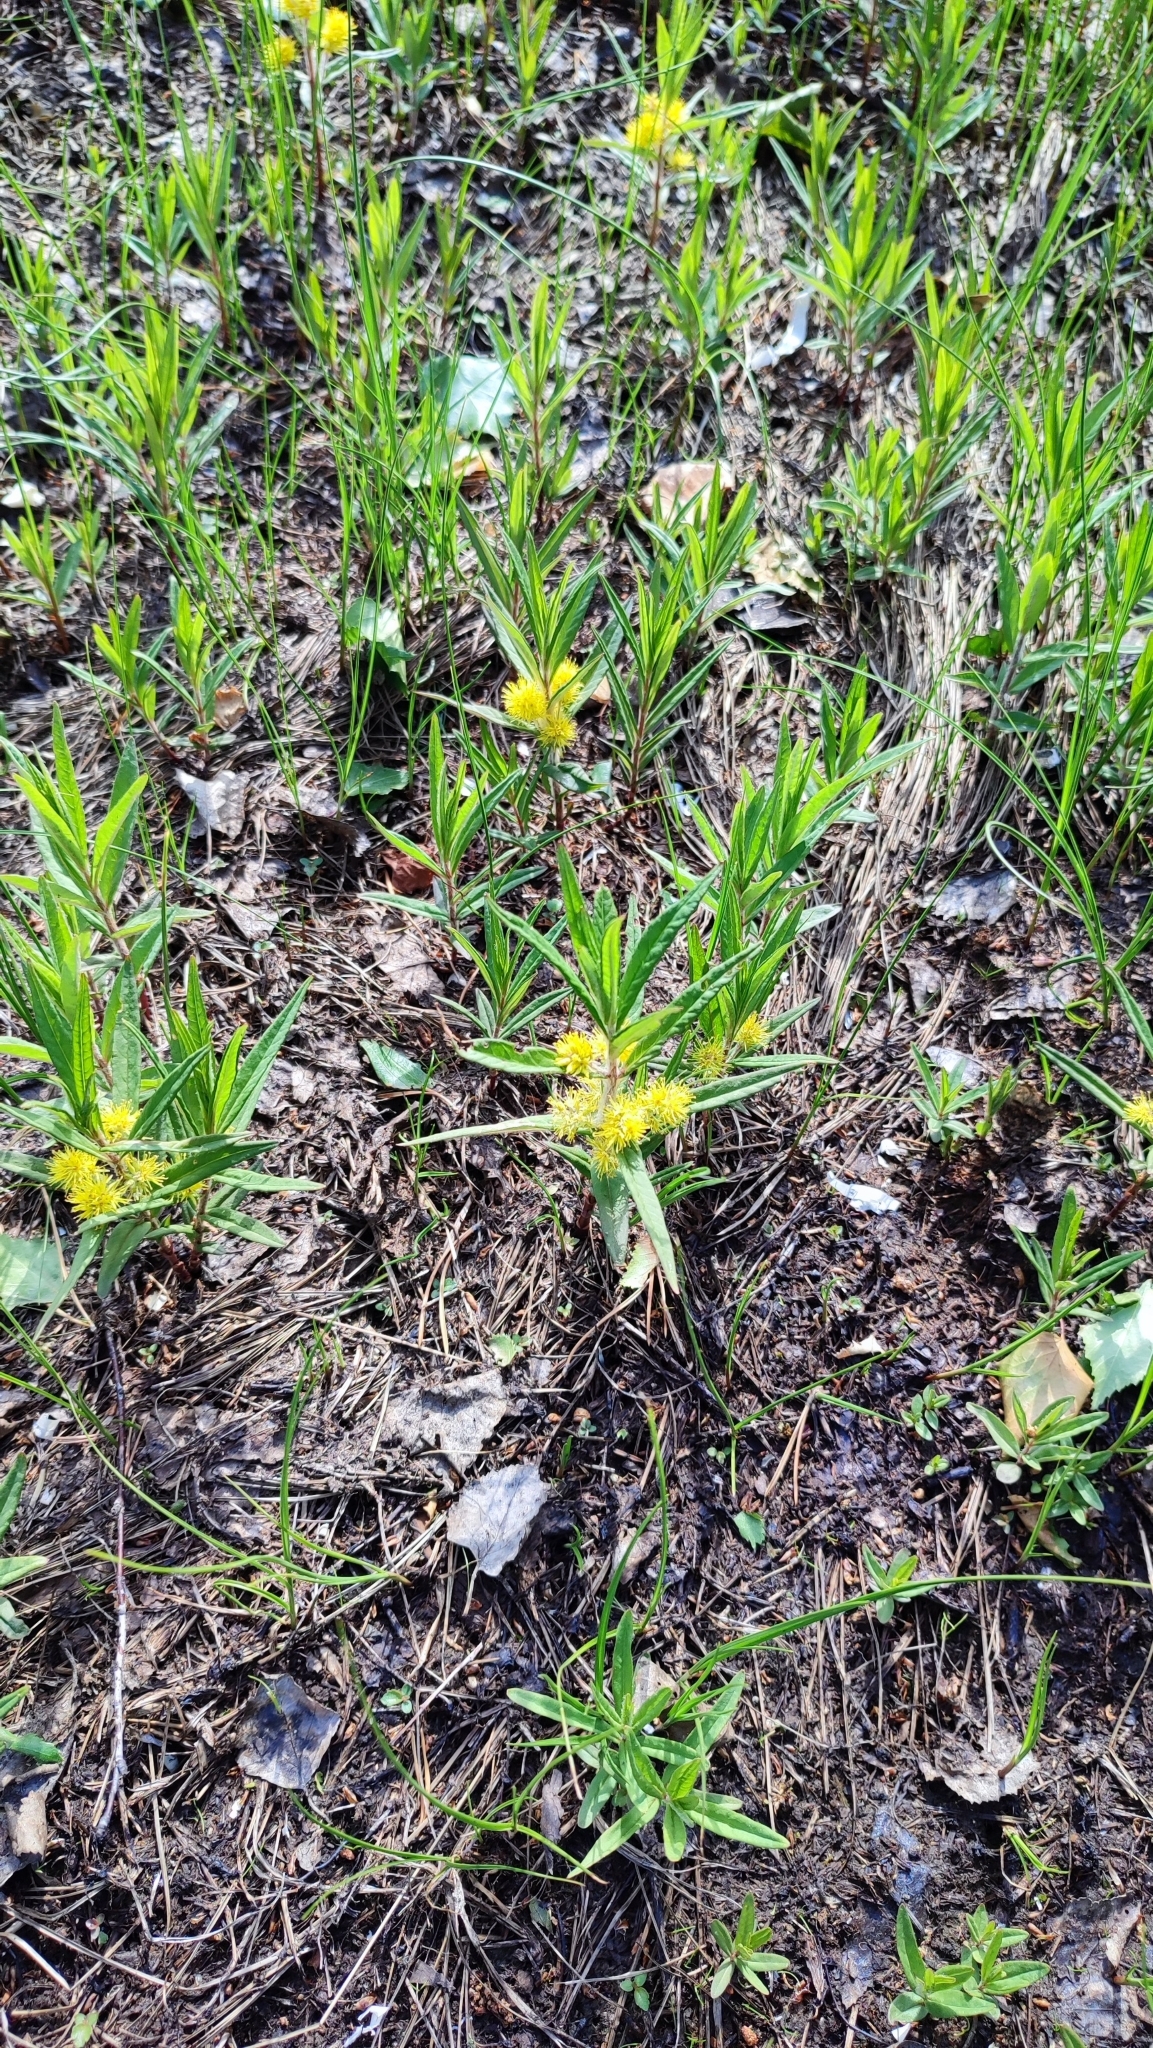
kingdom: Plantae
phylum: Tracheophyta
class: Magnoliopsida
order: Ericales
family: Primulaceae
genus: Lysimachia
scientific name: Lysimachia thyrsiflora
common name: Tufted loosestrife
